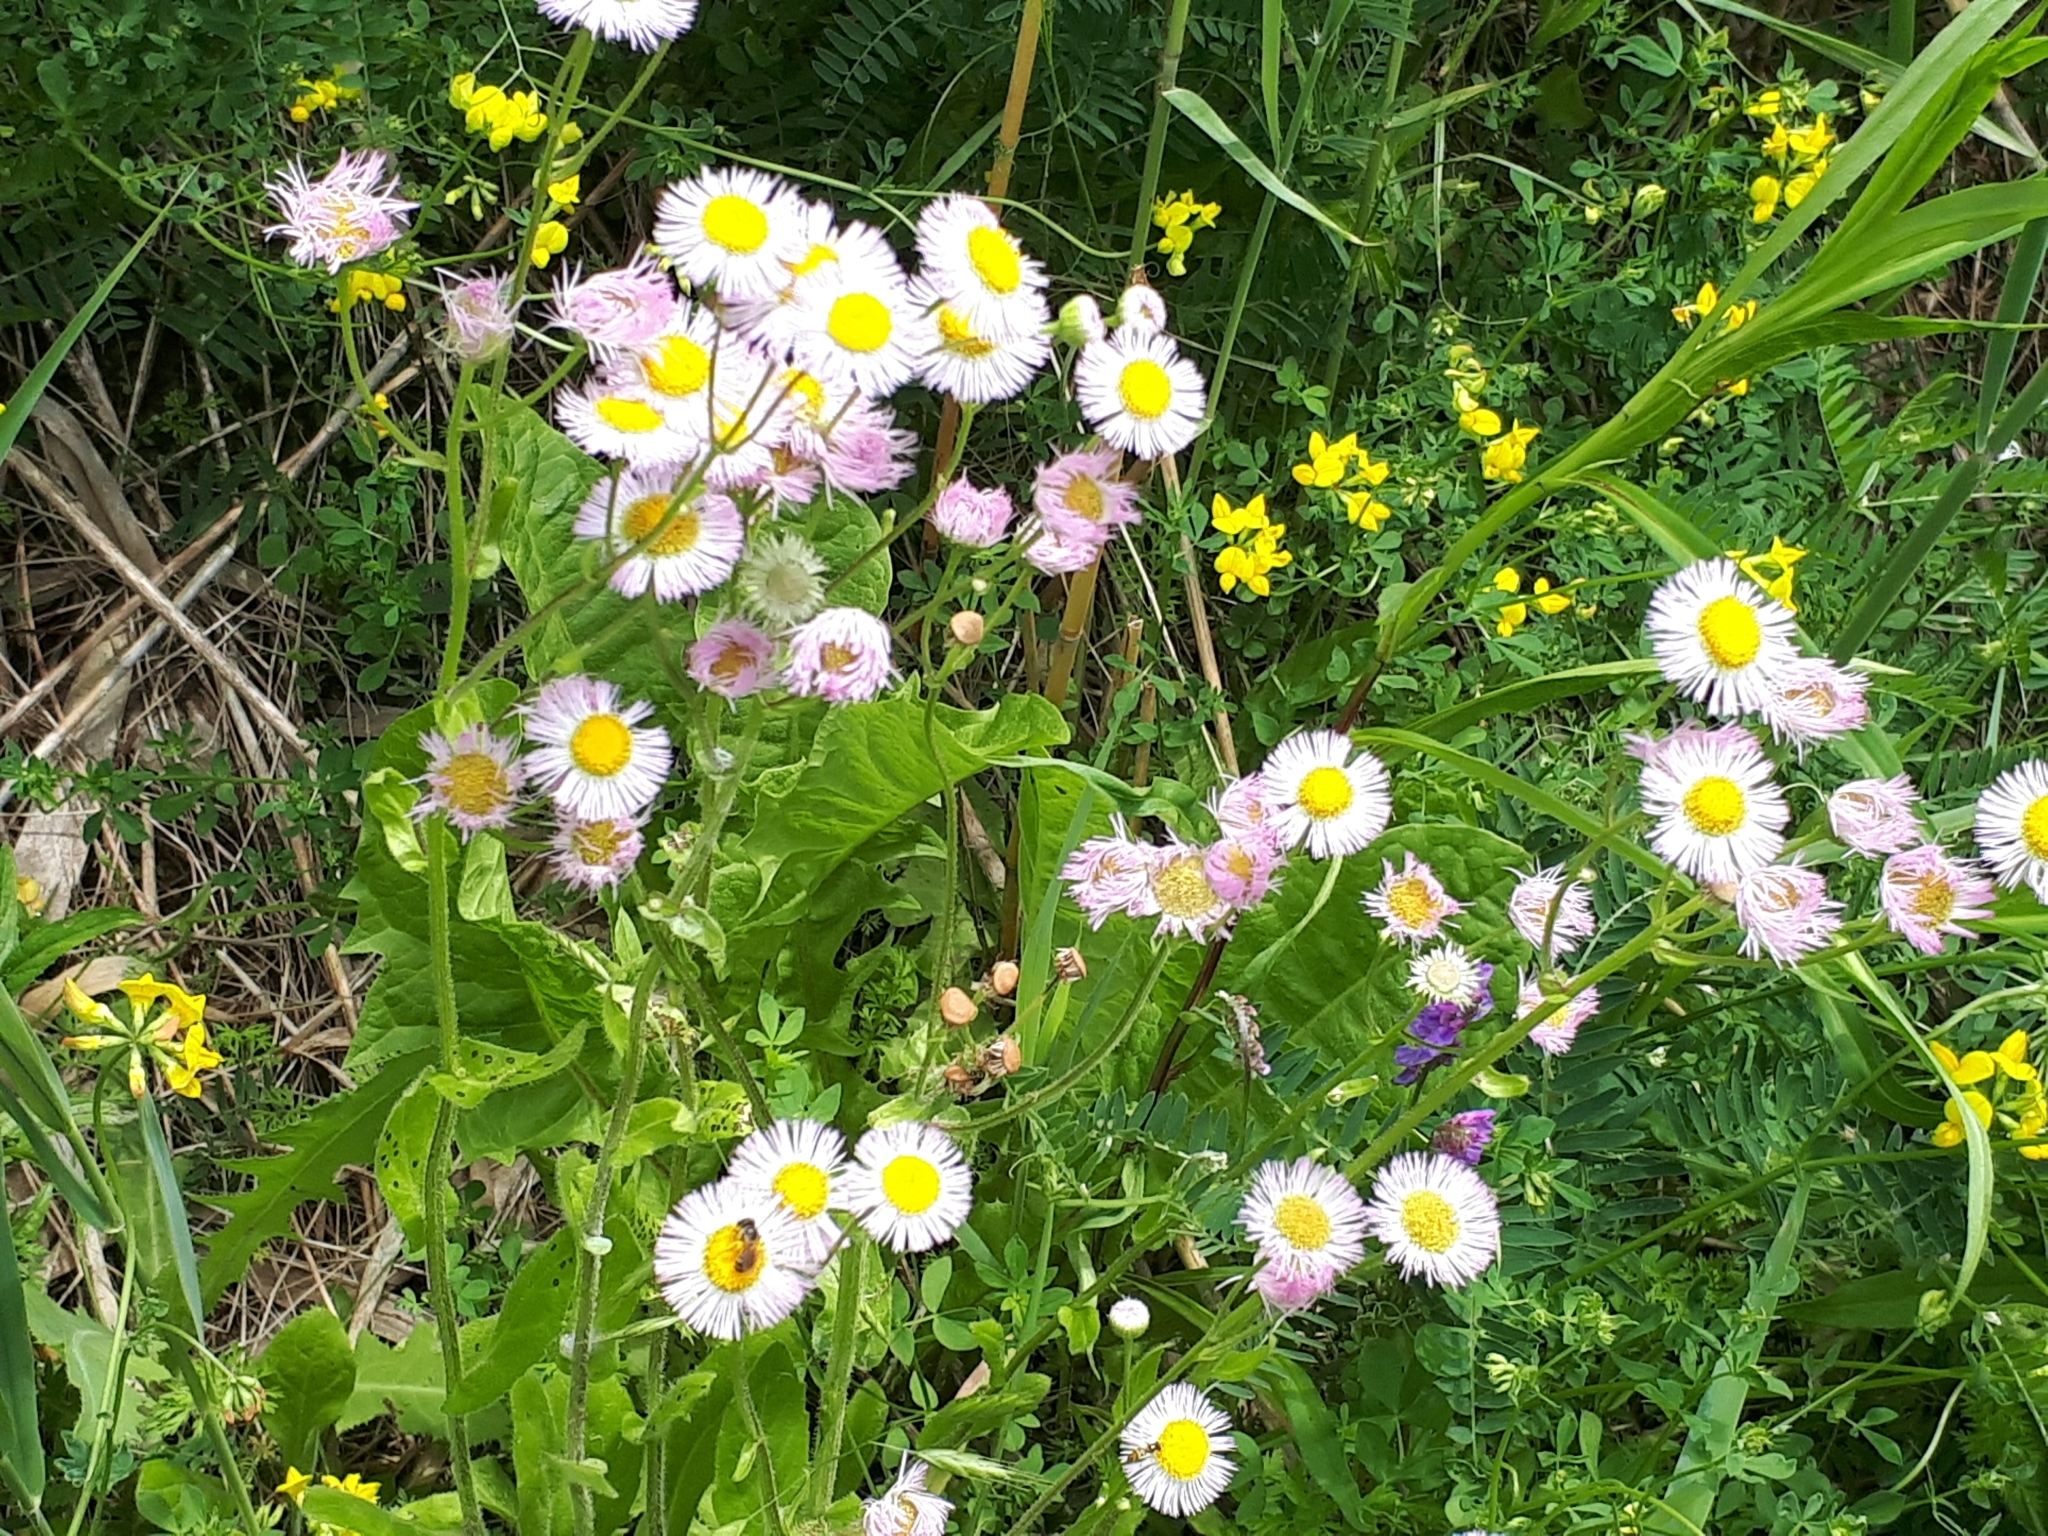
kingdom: Plantae
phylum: Tracheophyta
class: Magnoliopsida
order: Asterales
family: Asteraceae
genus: Erigeron
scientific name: Erigeron philadelphicus
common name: Robin's-plantain
